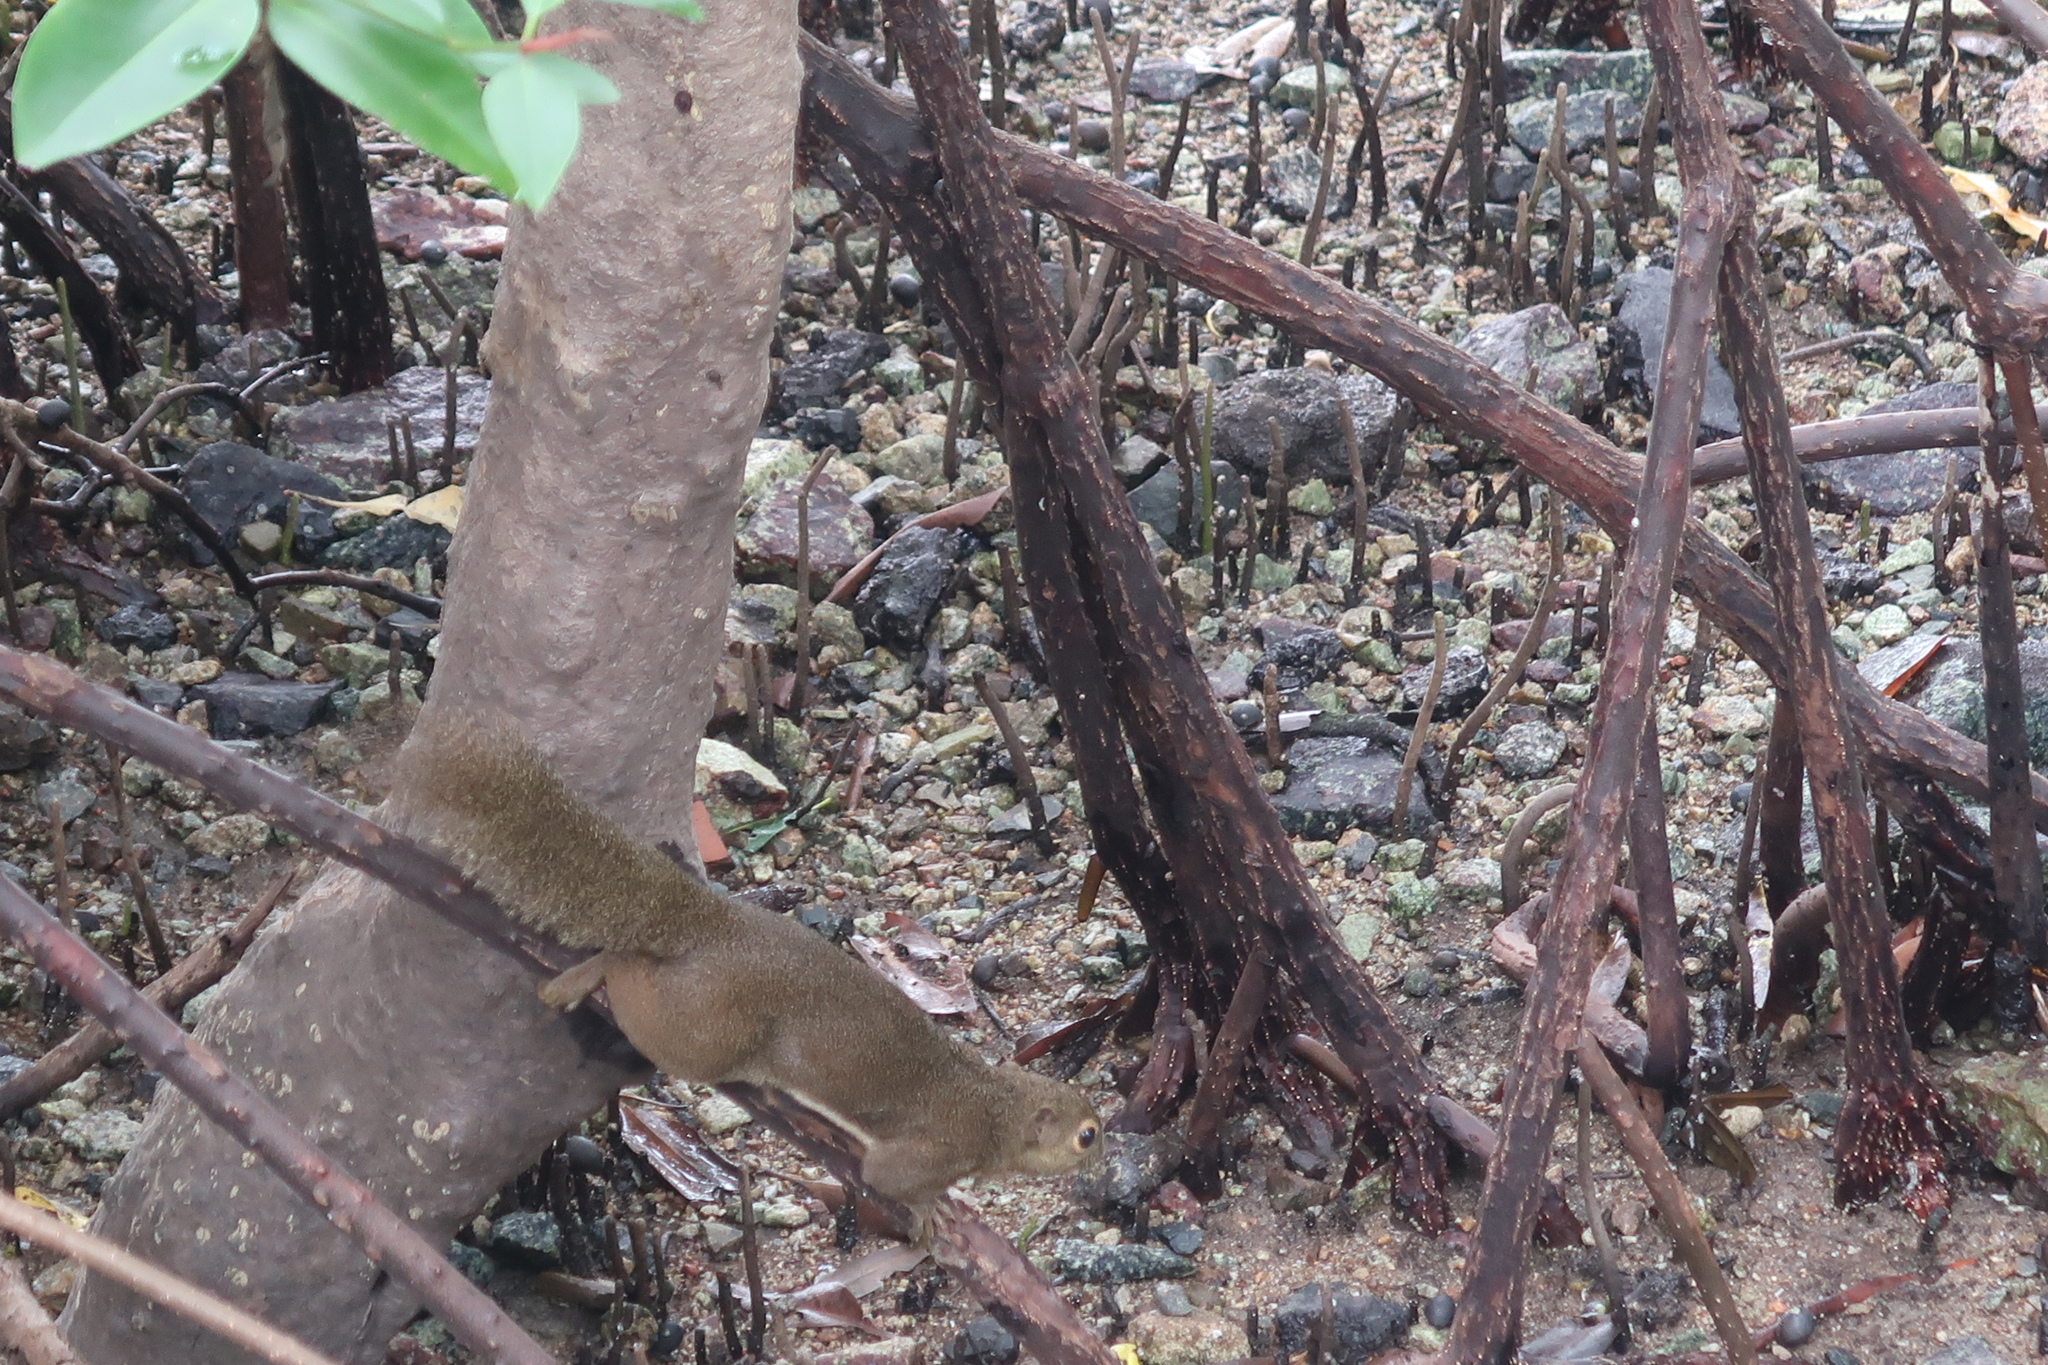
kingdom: Animalia
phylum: Chordata
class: Mammalia
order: Rodentia
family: Sciuridae
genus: Callosciurus
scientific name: Callosciurus notatus
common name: Plantain squirrel
